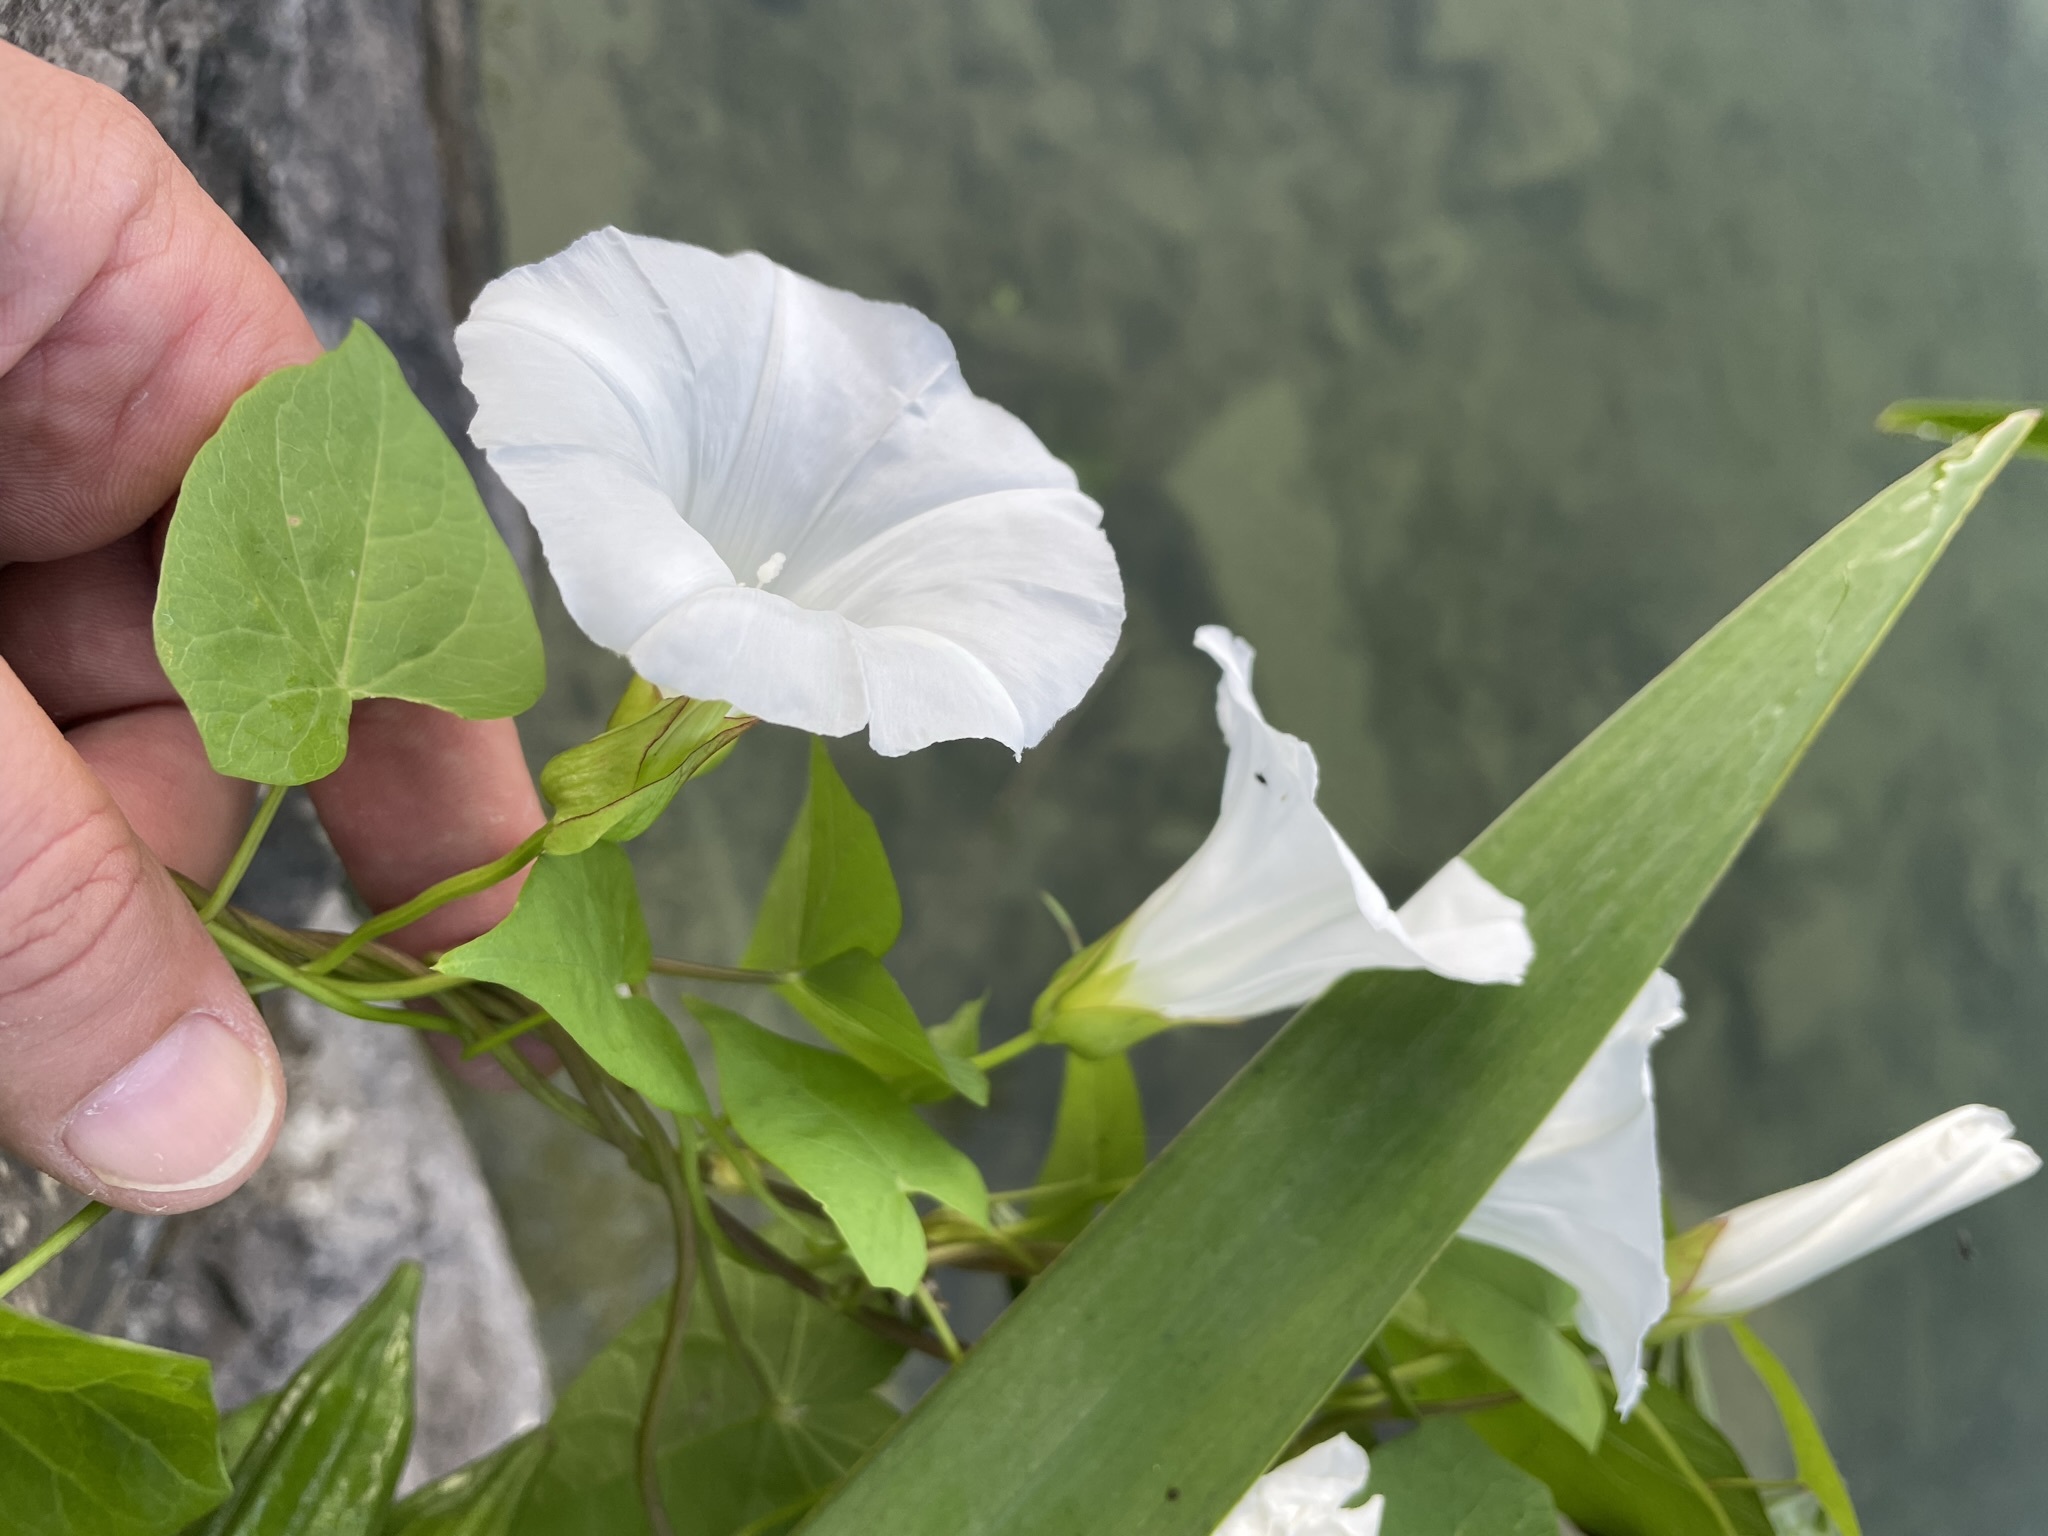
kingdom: Plantae
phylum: Tracheophyta
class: Magnoliopsida
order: Solanales
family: Convolvulaceae
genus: Calystegia
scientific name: Calystegia sepium
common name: Hedge bindweed
